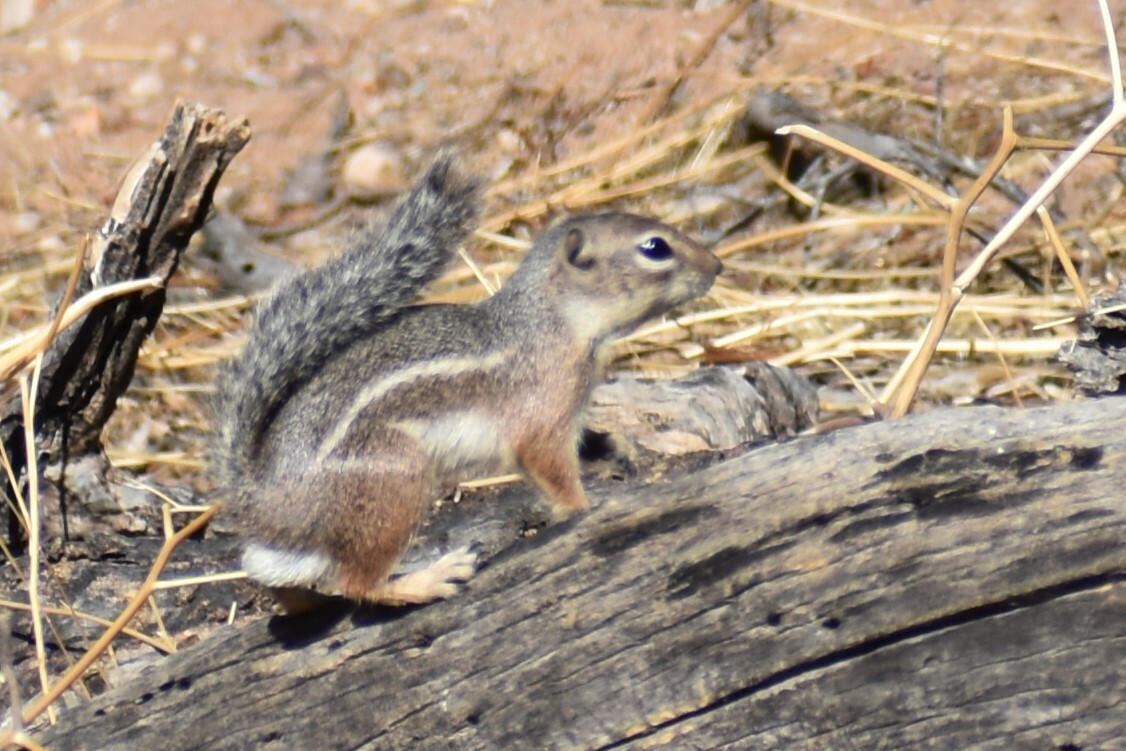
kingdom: Animalia
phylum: Chordata
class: Mammalia
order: Rodentia
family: Sciuridae
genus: Ammospermophilus
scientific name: Ammospermophilus harrisii
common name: Harris's antelope squirrel
